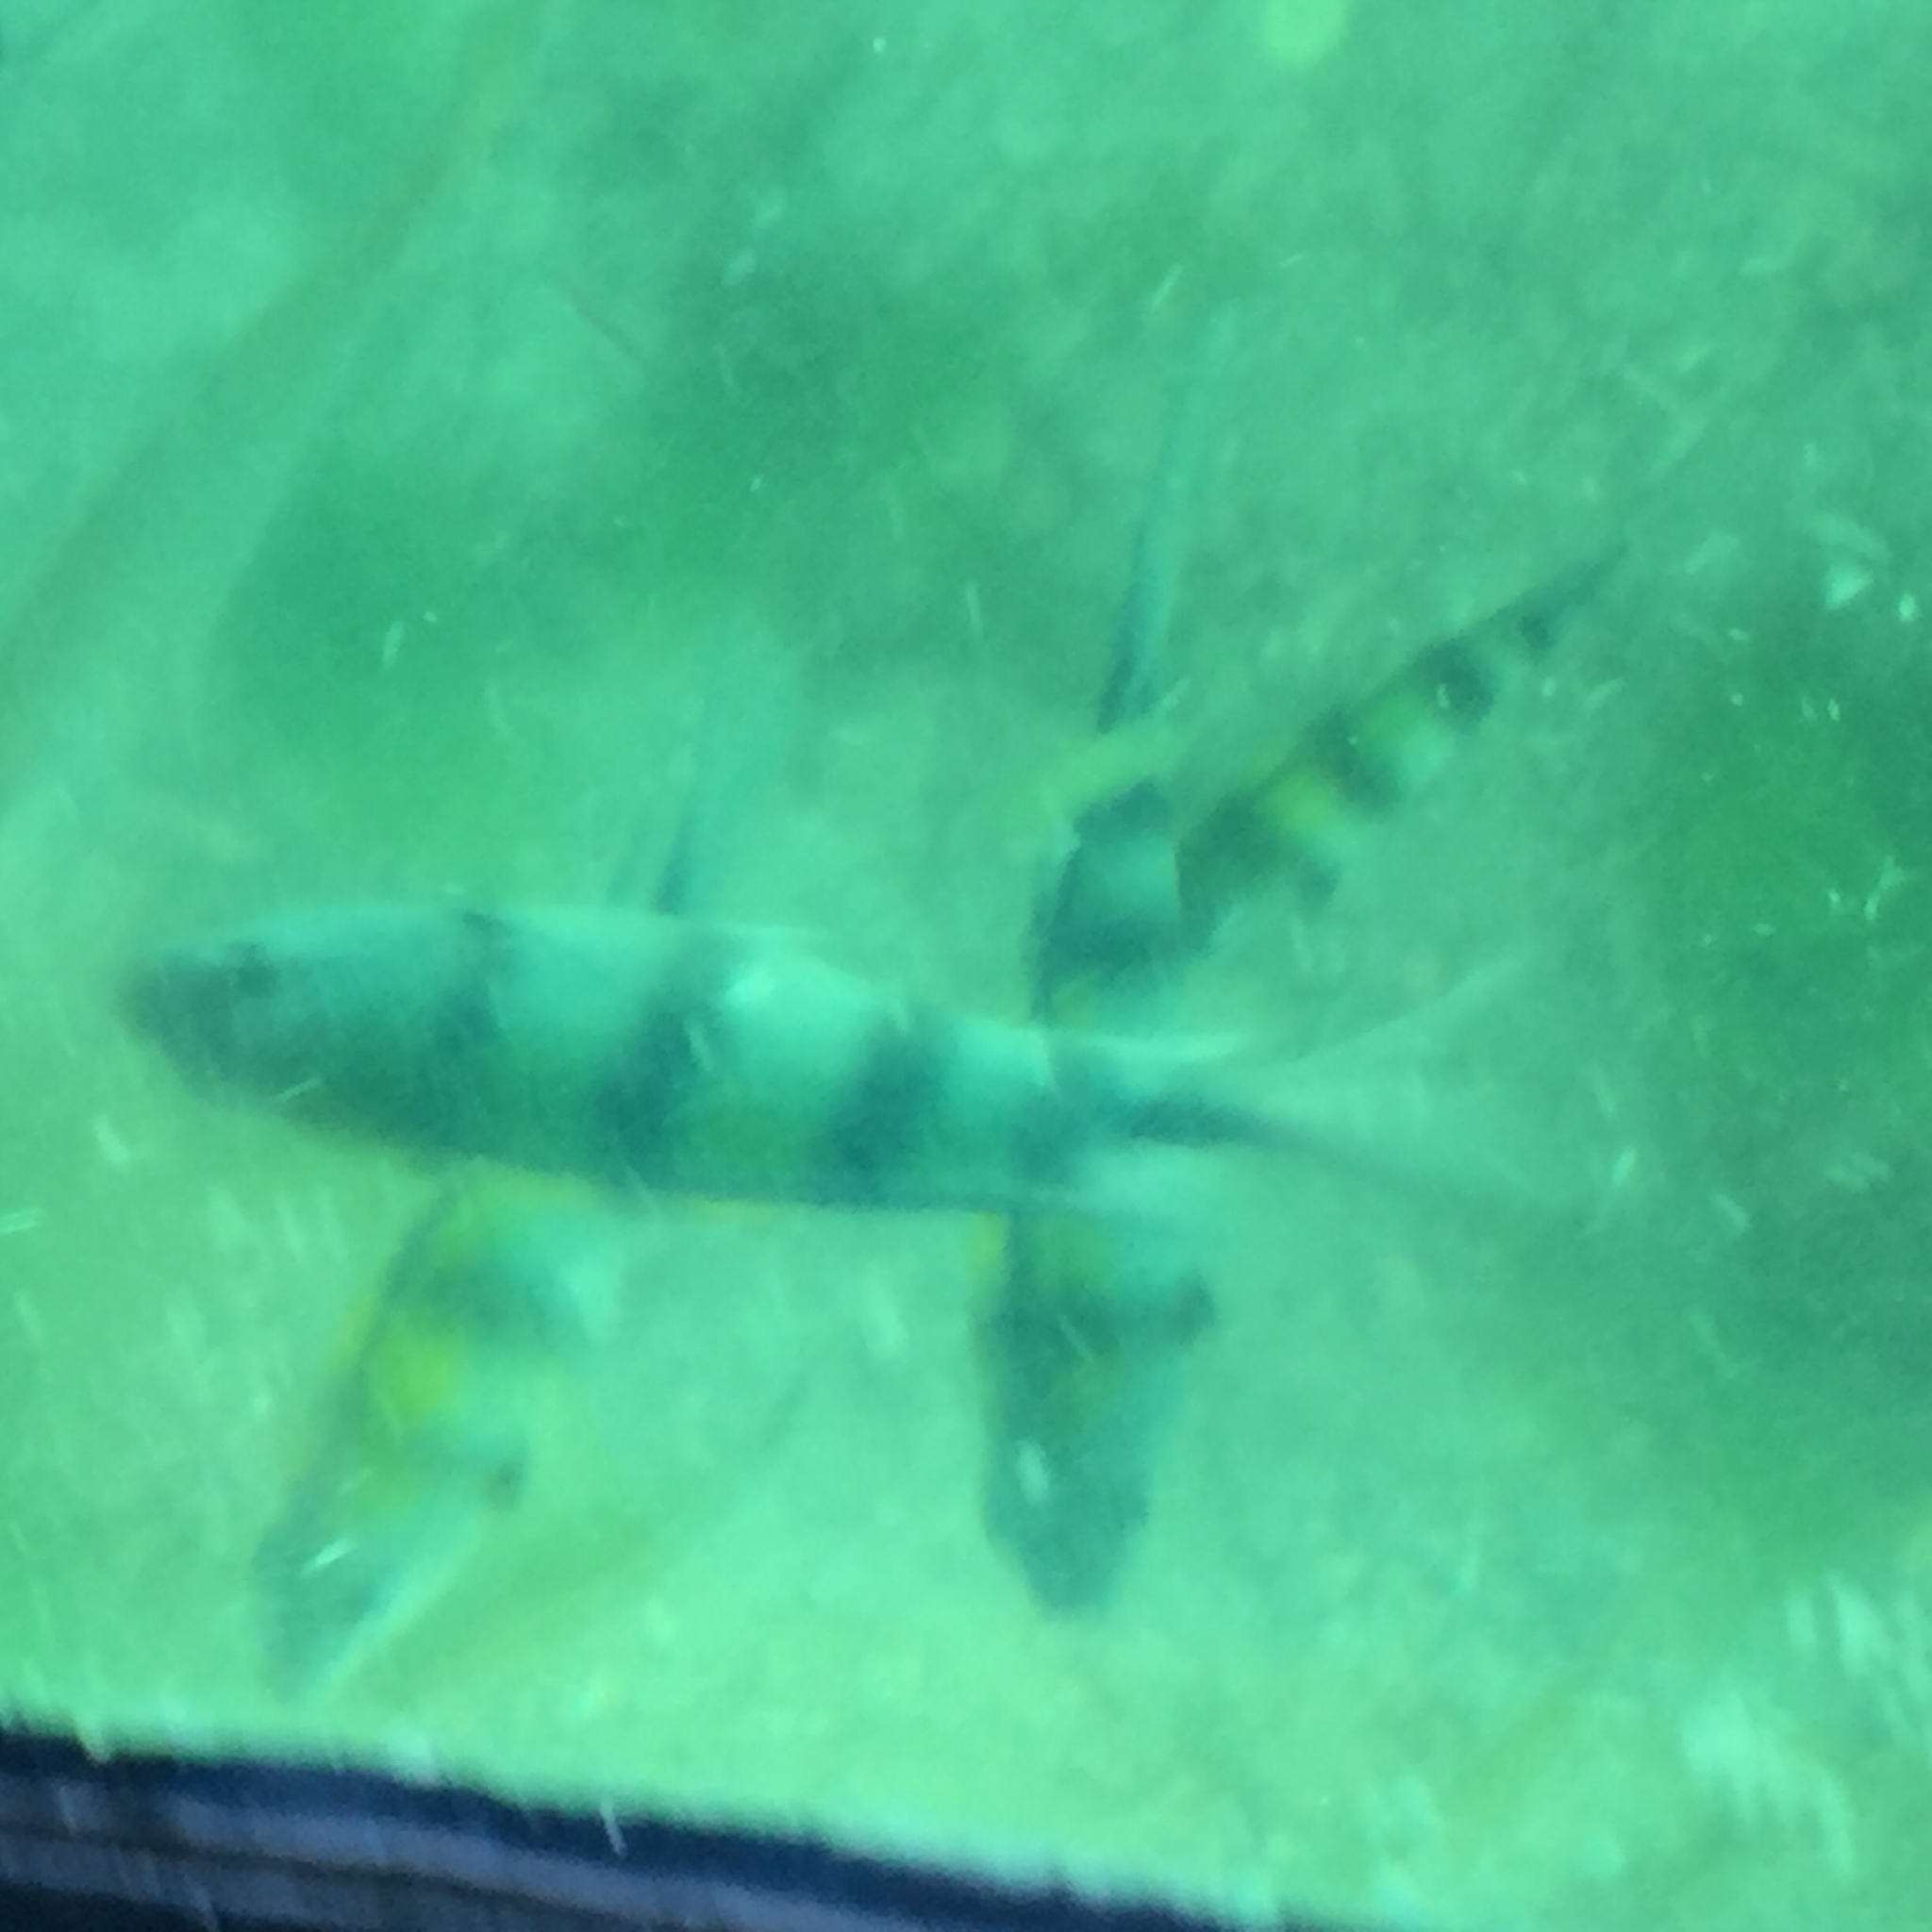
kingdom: Animalia
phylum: Chordata
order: Perciformes
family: Pomacentridae
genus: Abudefduf
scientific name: Abudefduf vaigiensis
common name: Indo-pacific sergeant
